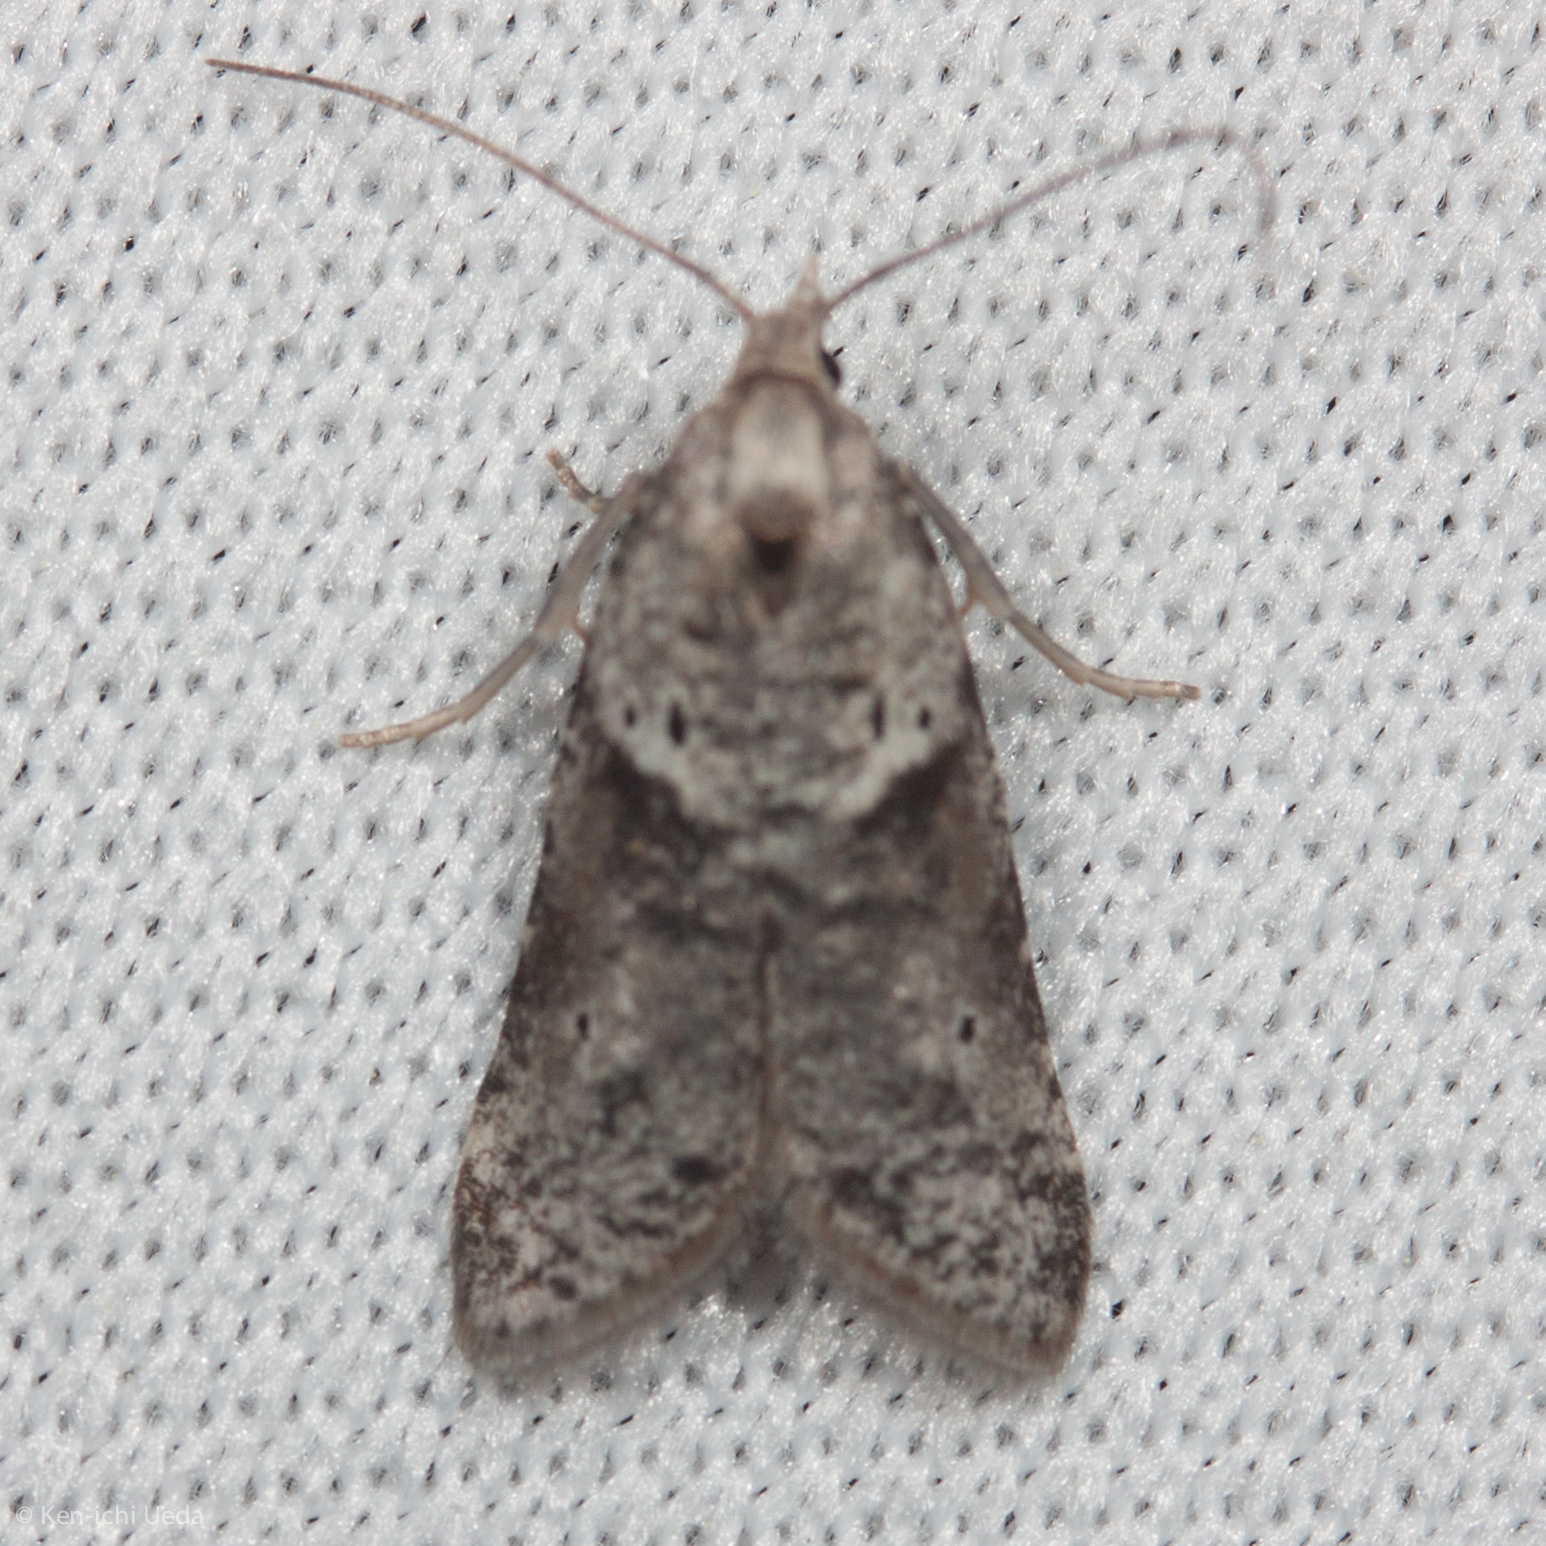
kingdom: Animalia
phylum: Arthropoda
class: Insecta
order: Lepidoptera
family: Copromorphidae
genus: Lotisma
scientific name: Lotisma trigonana
